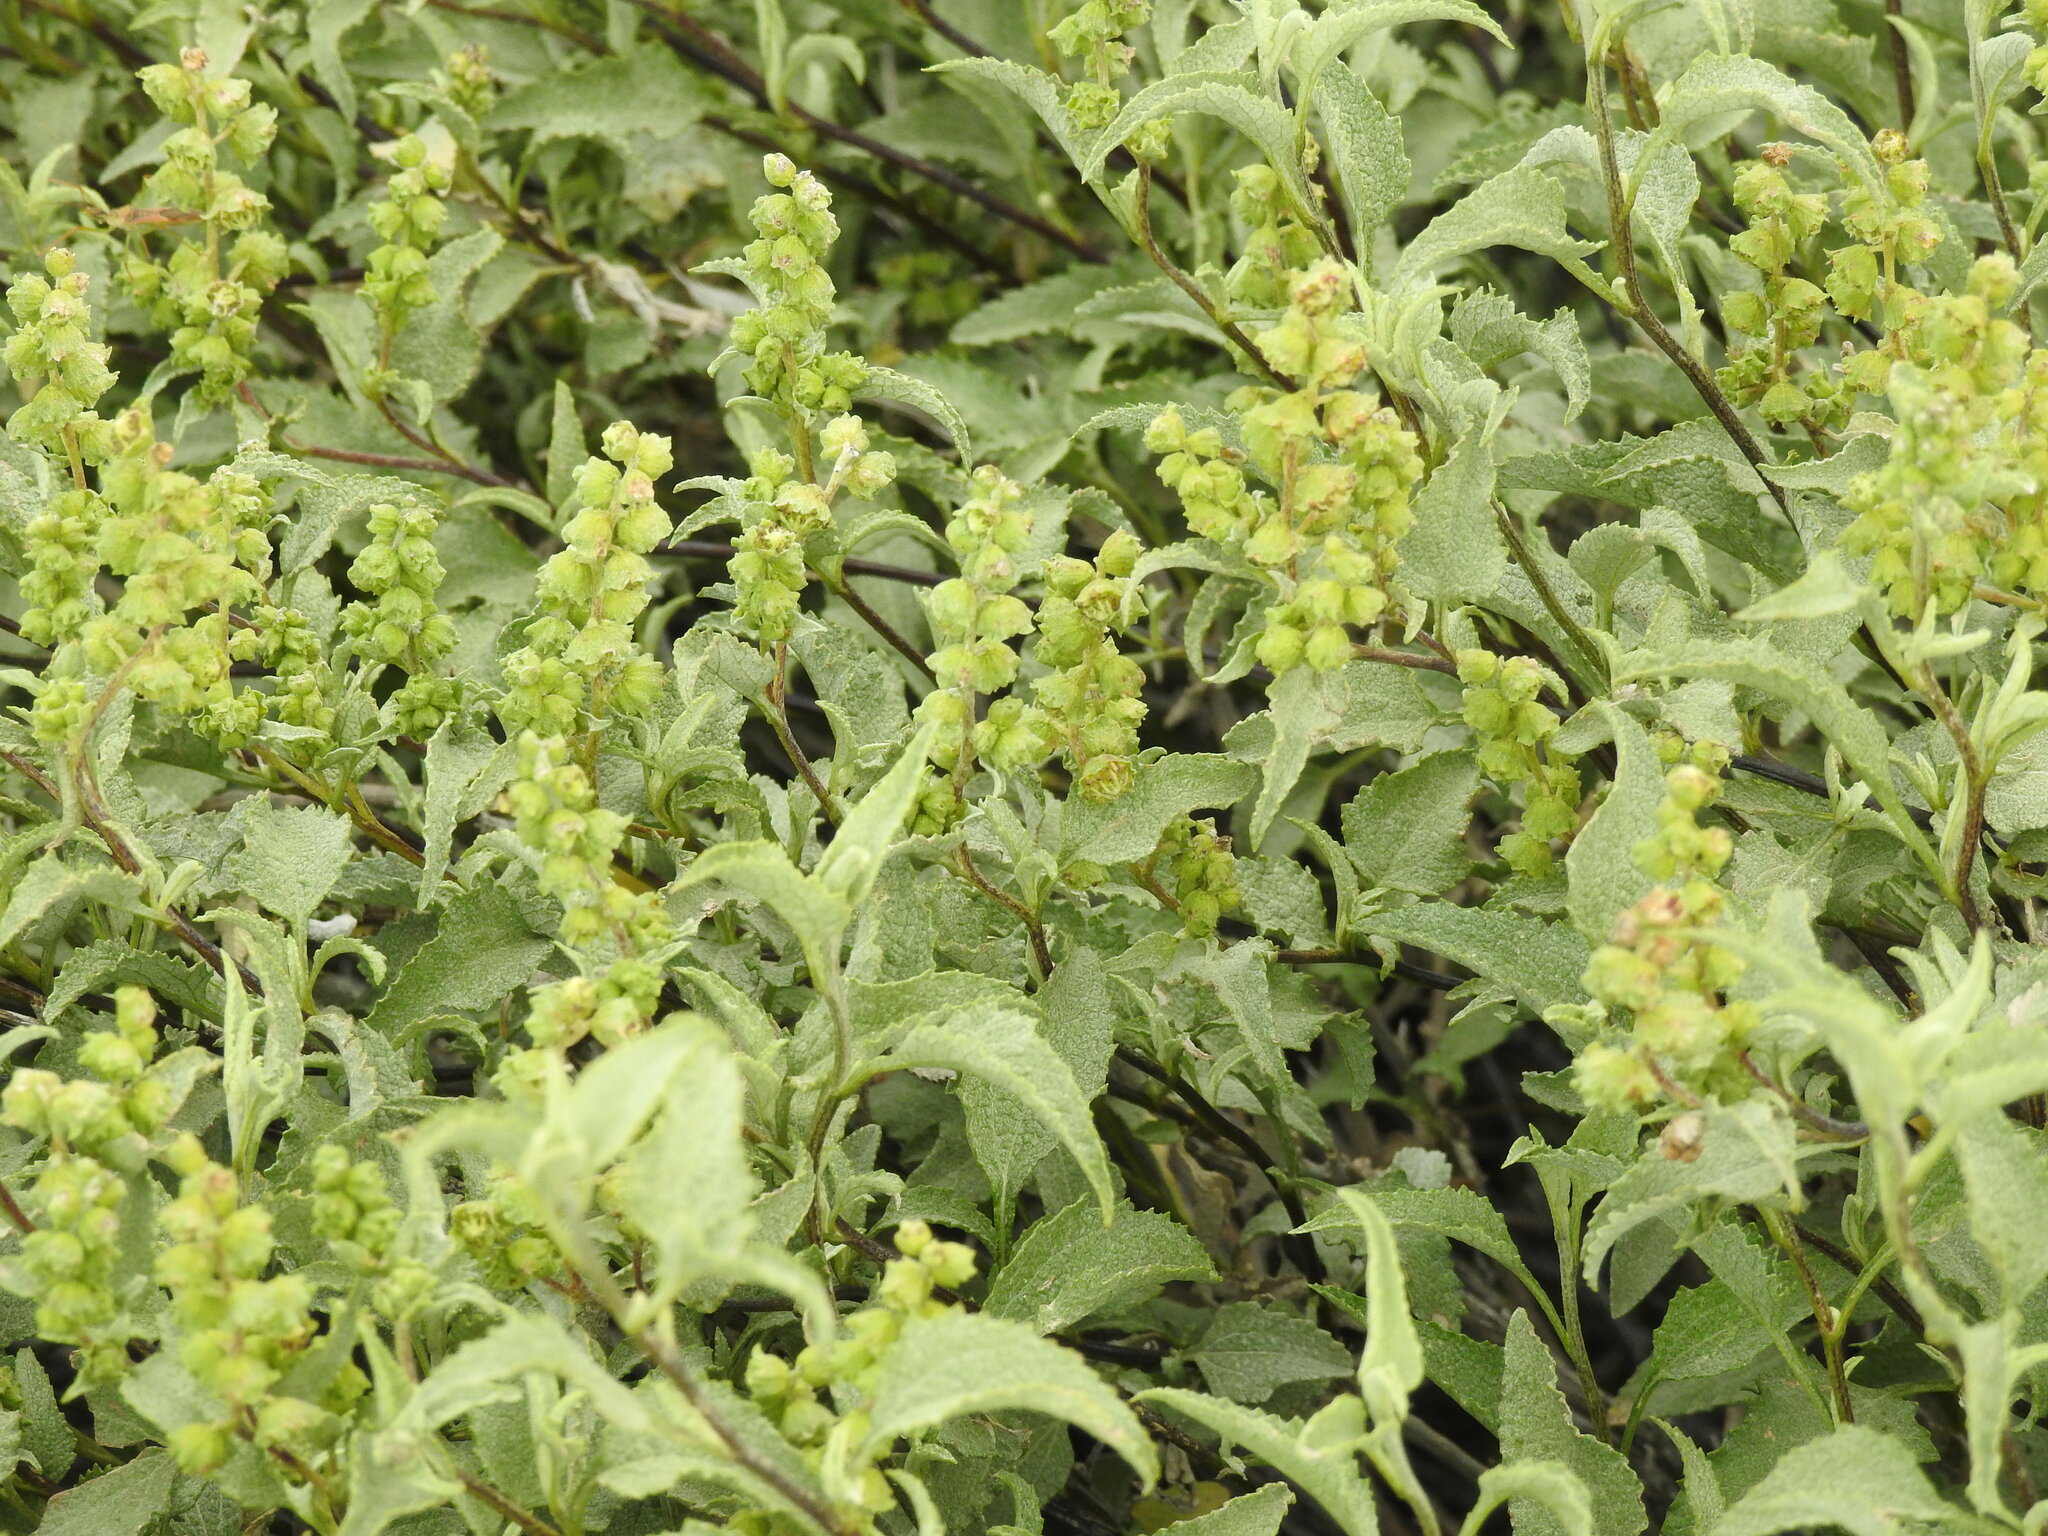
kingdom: Plantae
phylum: Tracheophyta
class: Magnoliopsida
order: Asterales
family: Asteraceae
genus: Ambrosia
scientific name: Ambrosia deltoidea
